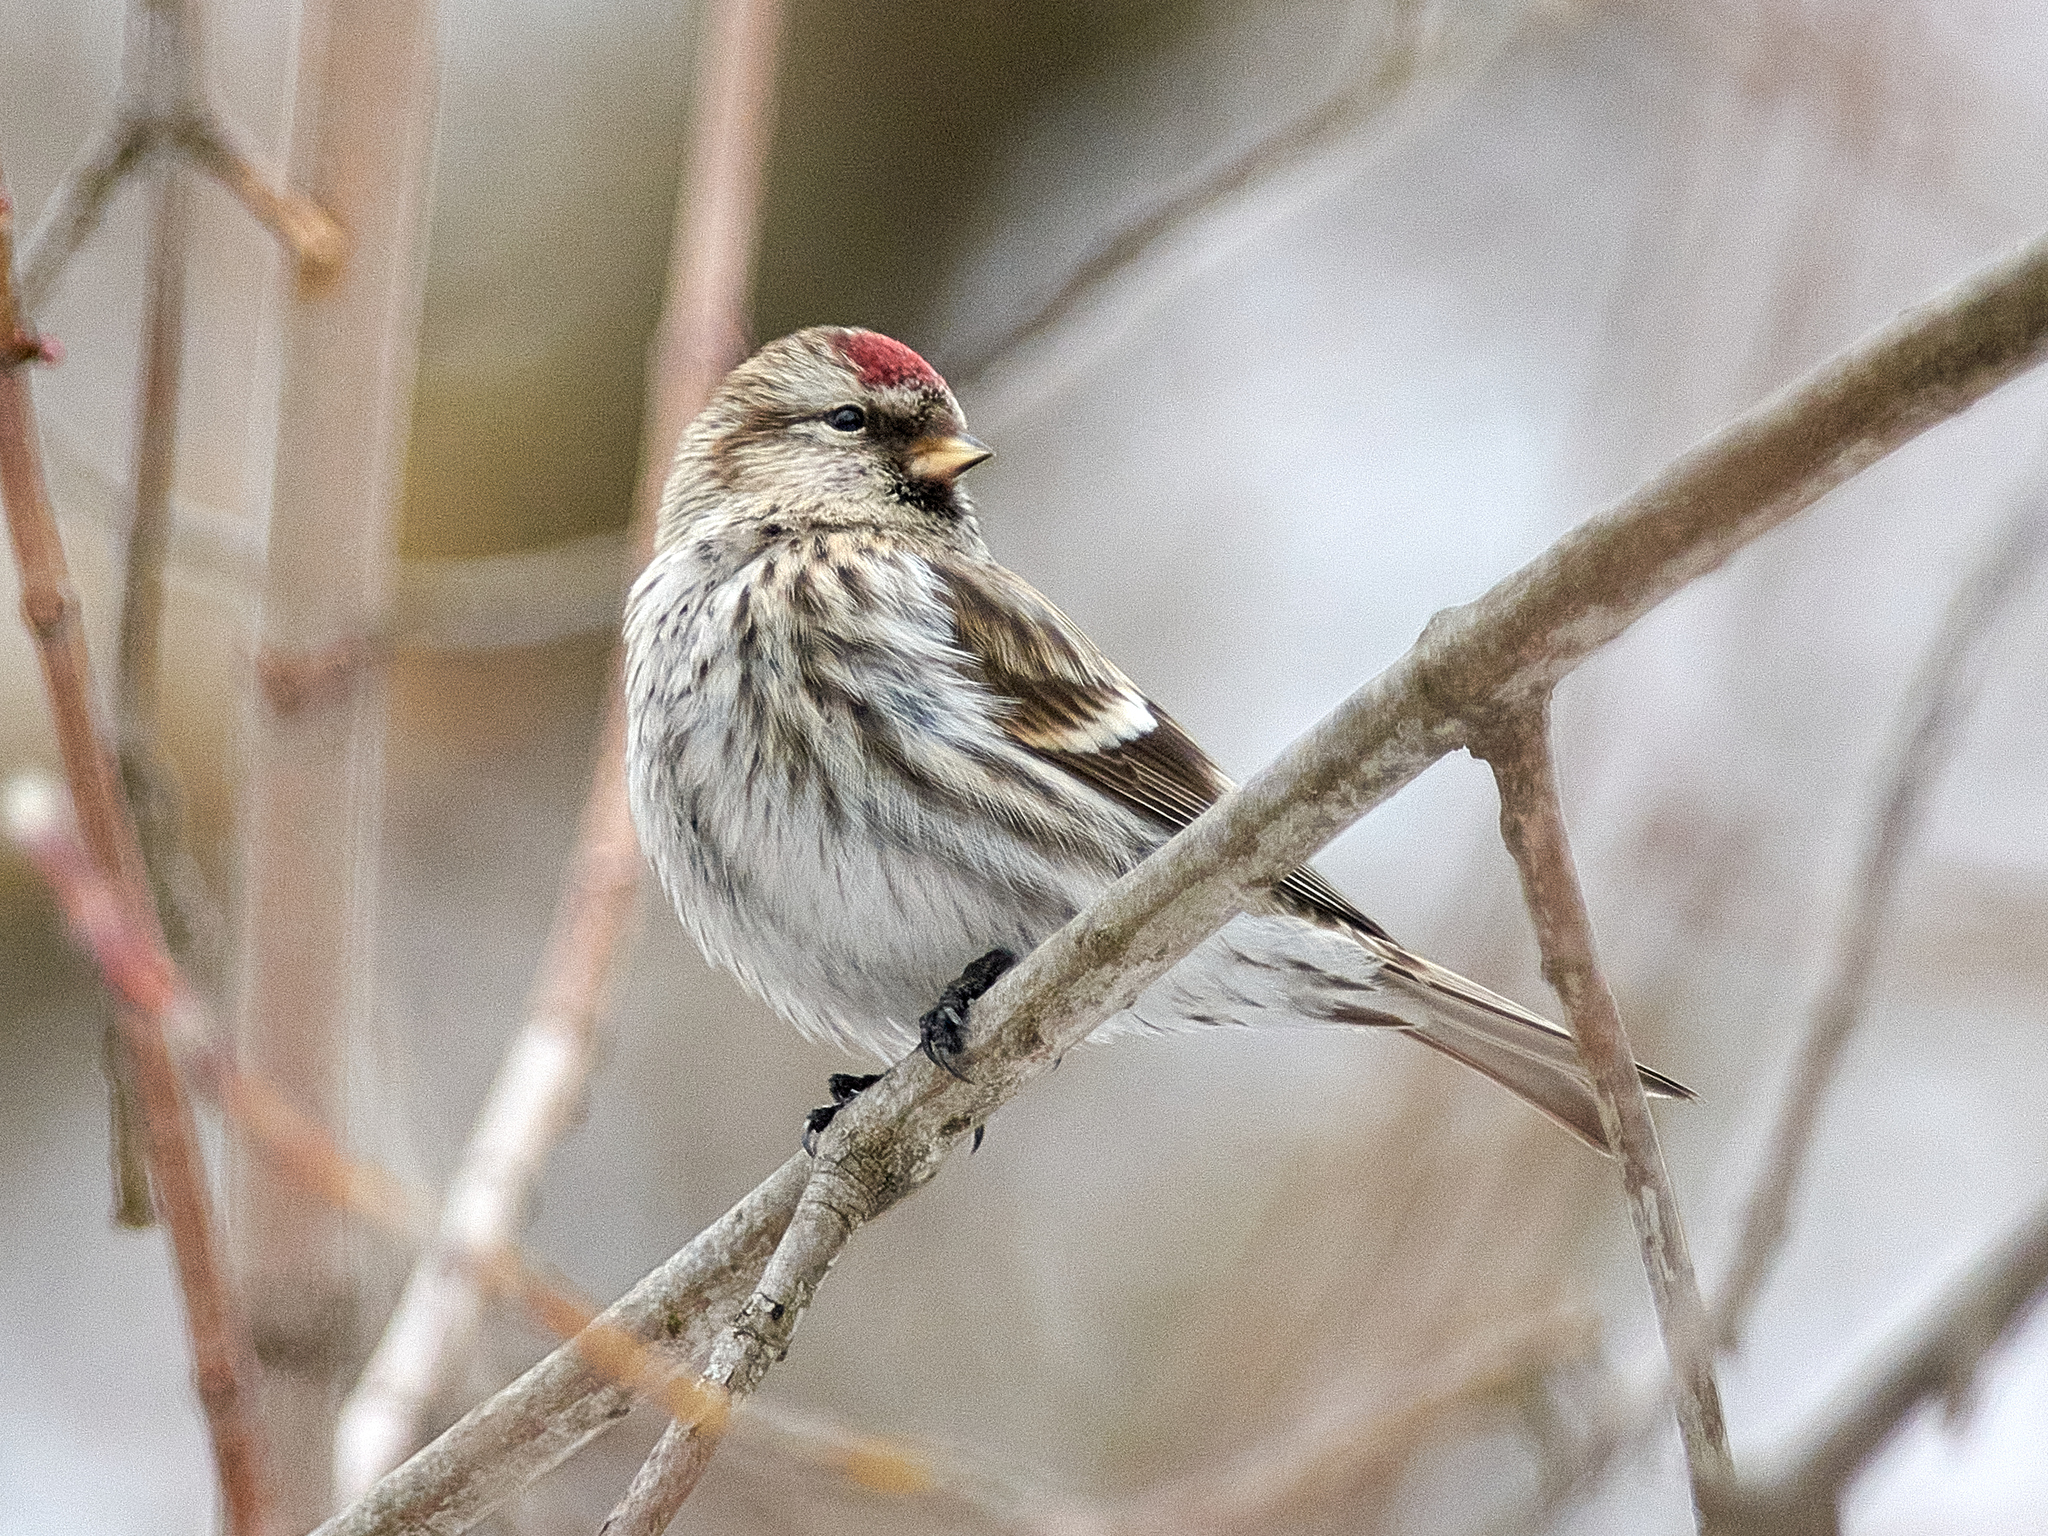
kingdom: Animalia
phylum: Chordata
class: Aves
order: Passeriformes
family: Fringillidae
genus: Acanthis
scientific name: Acanthis flammea
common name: Common redpoll
